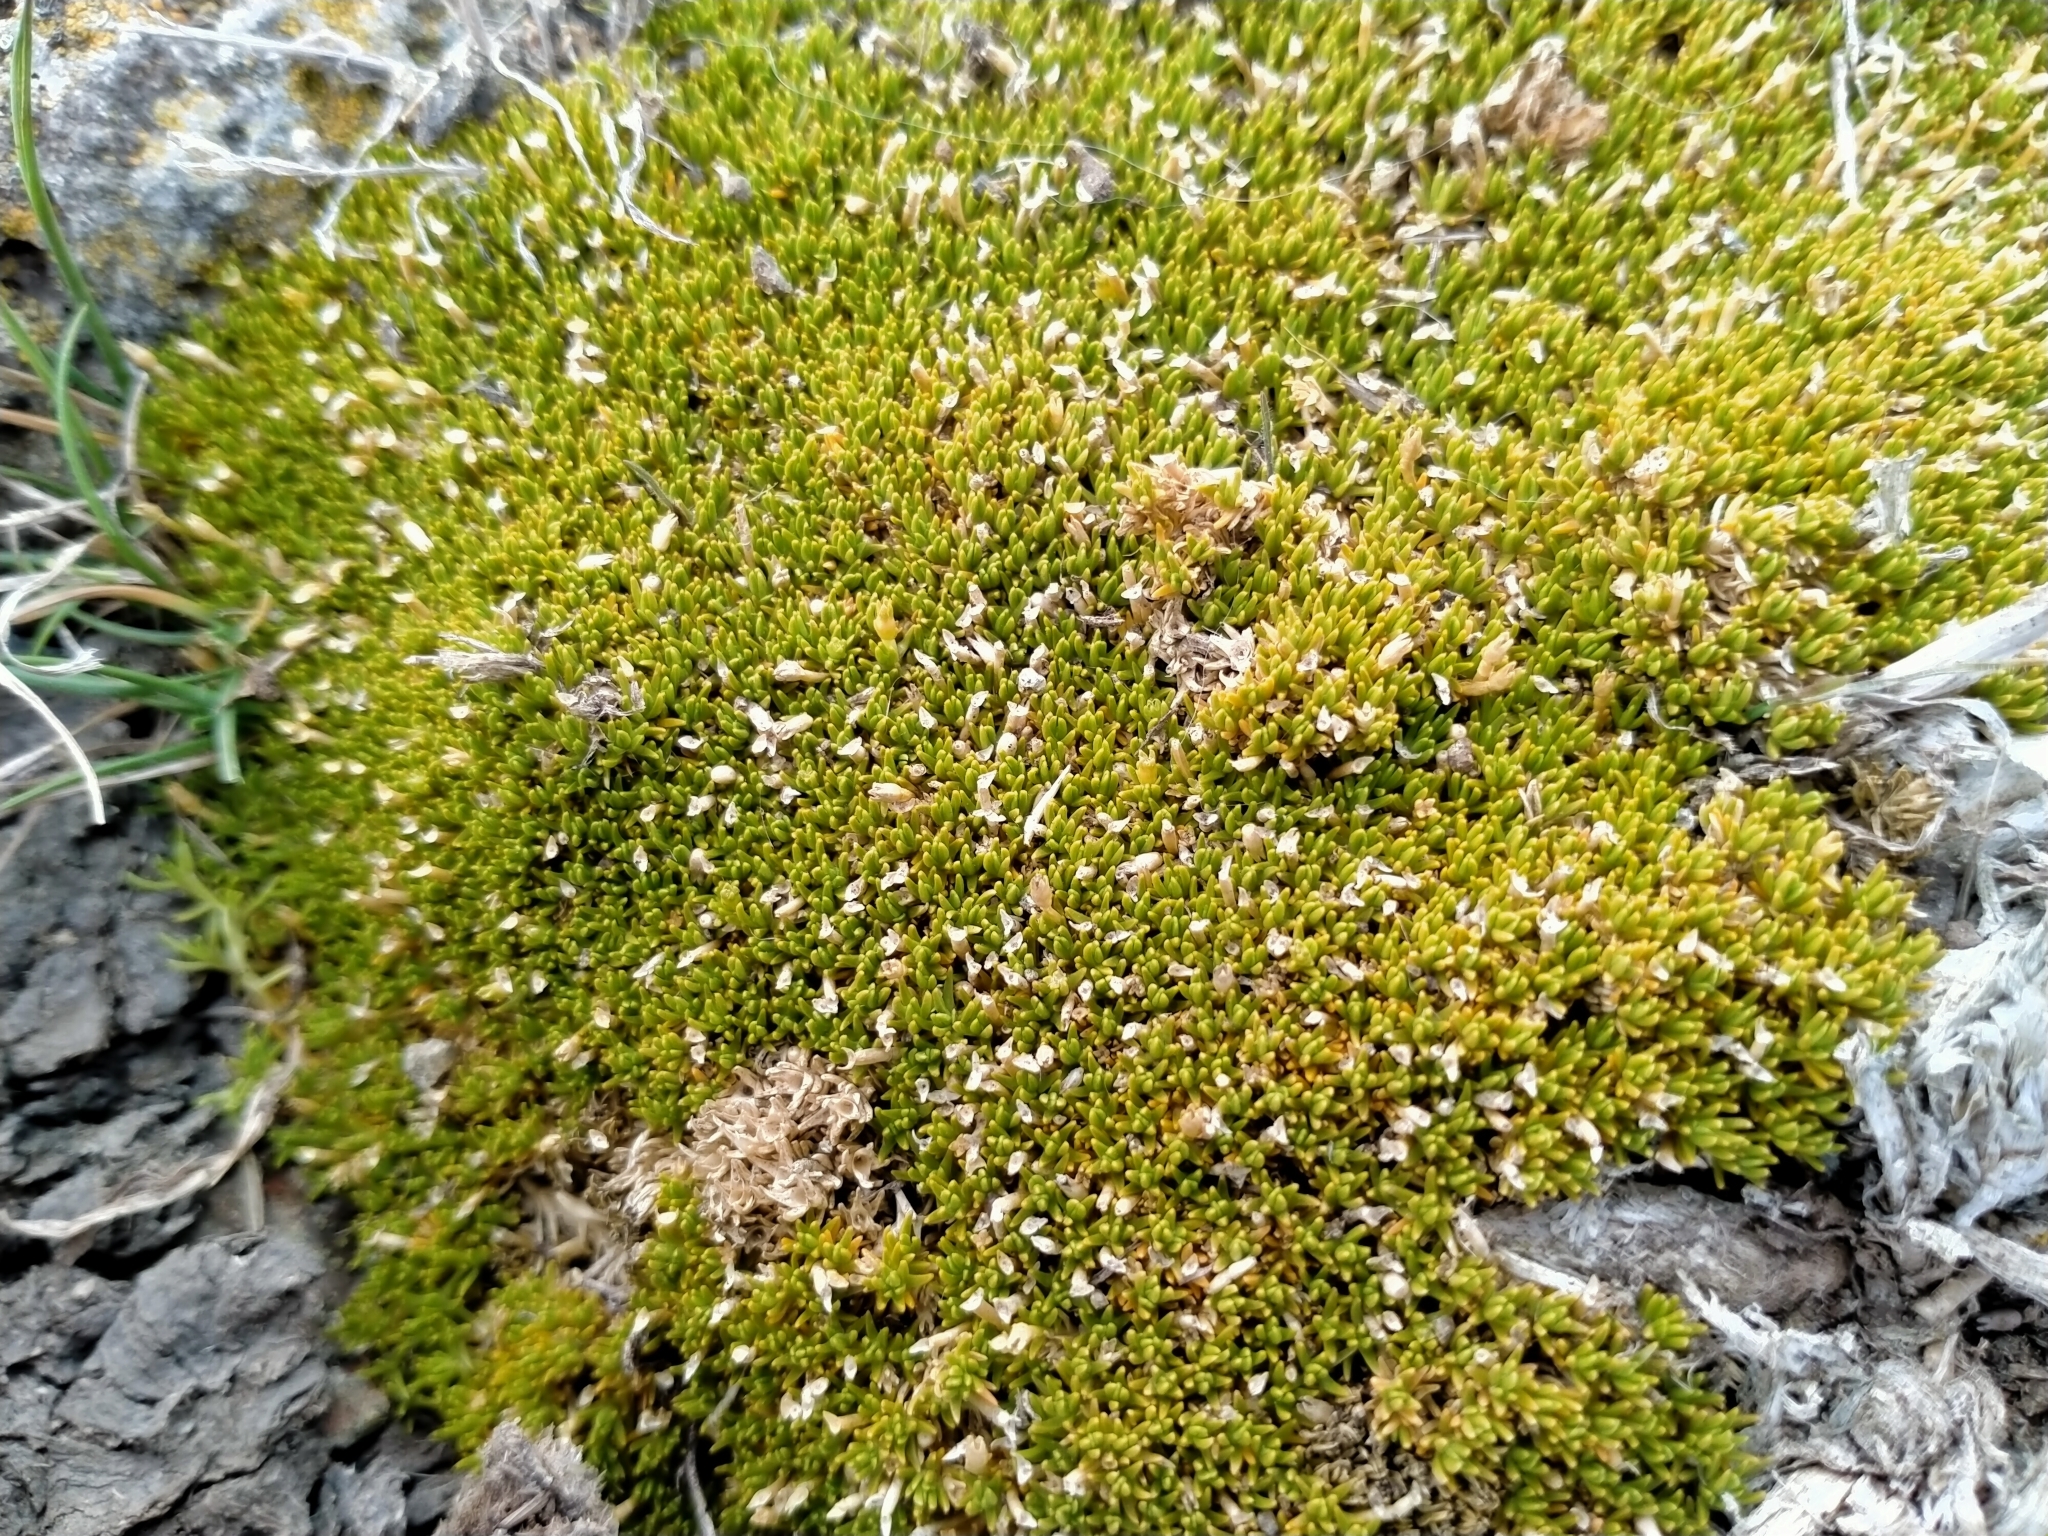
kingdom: Plantae
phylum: Tracheophyta
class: Magnoliopsida
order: Caryophyllales
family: Caryophyllaceae
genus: Scleranthus
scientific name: Scleranthus uniflorus
